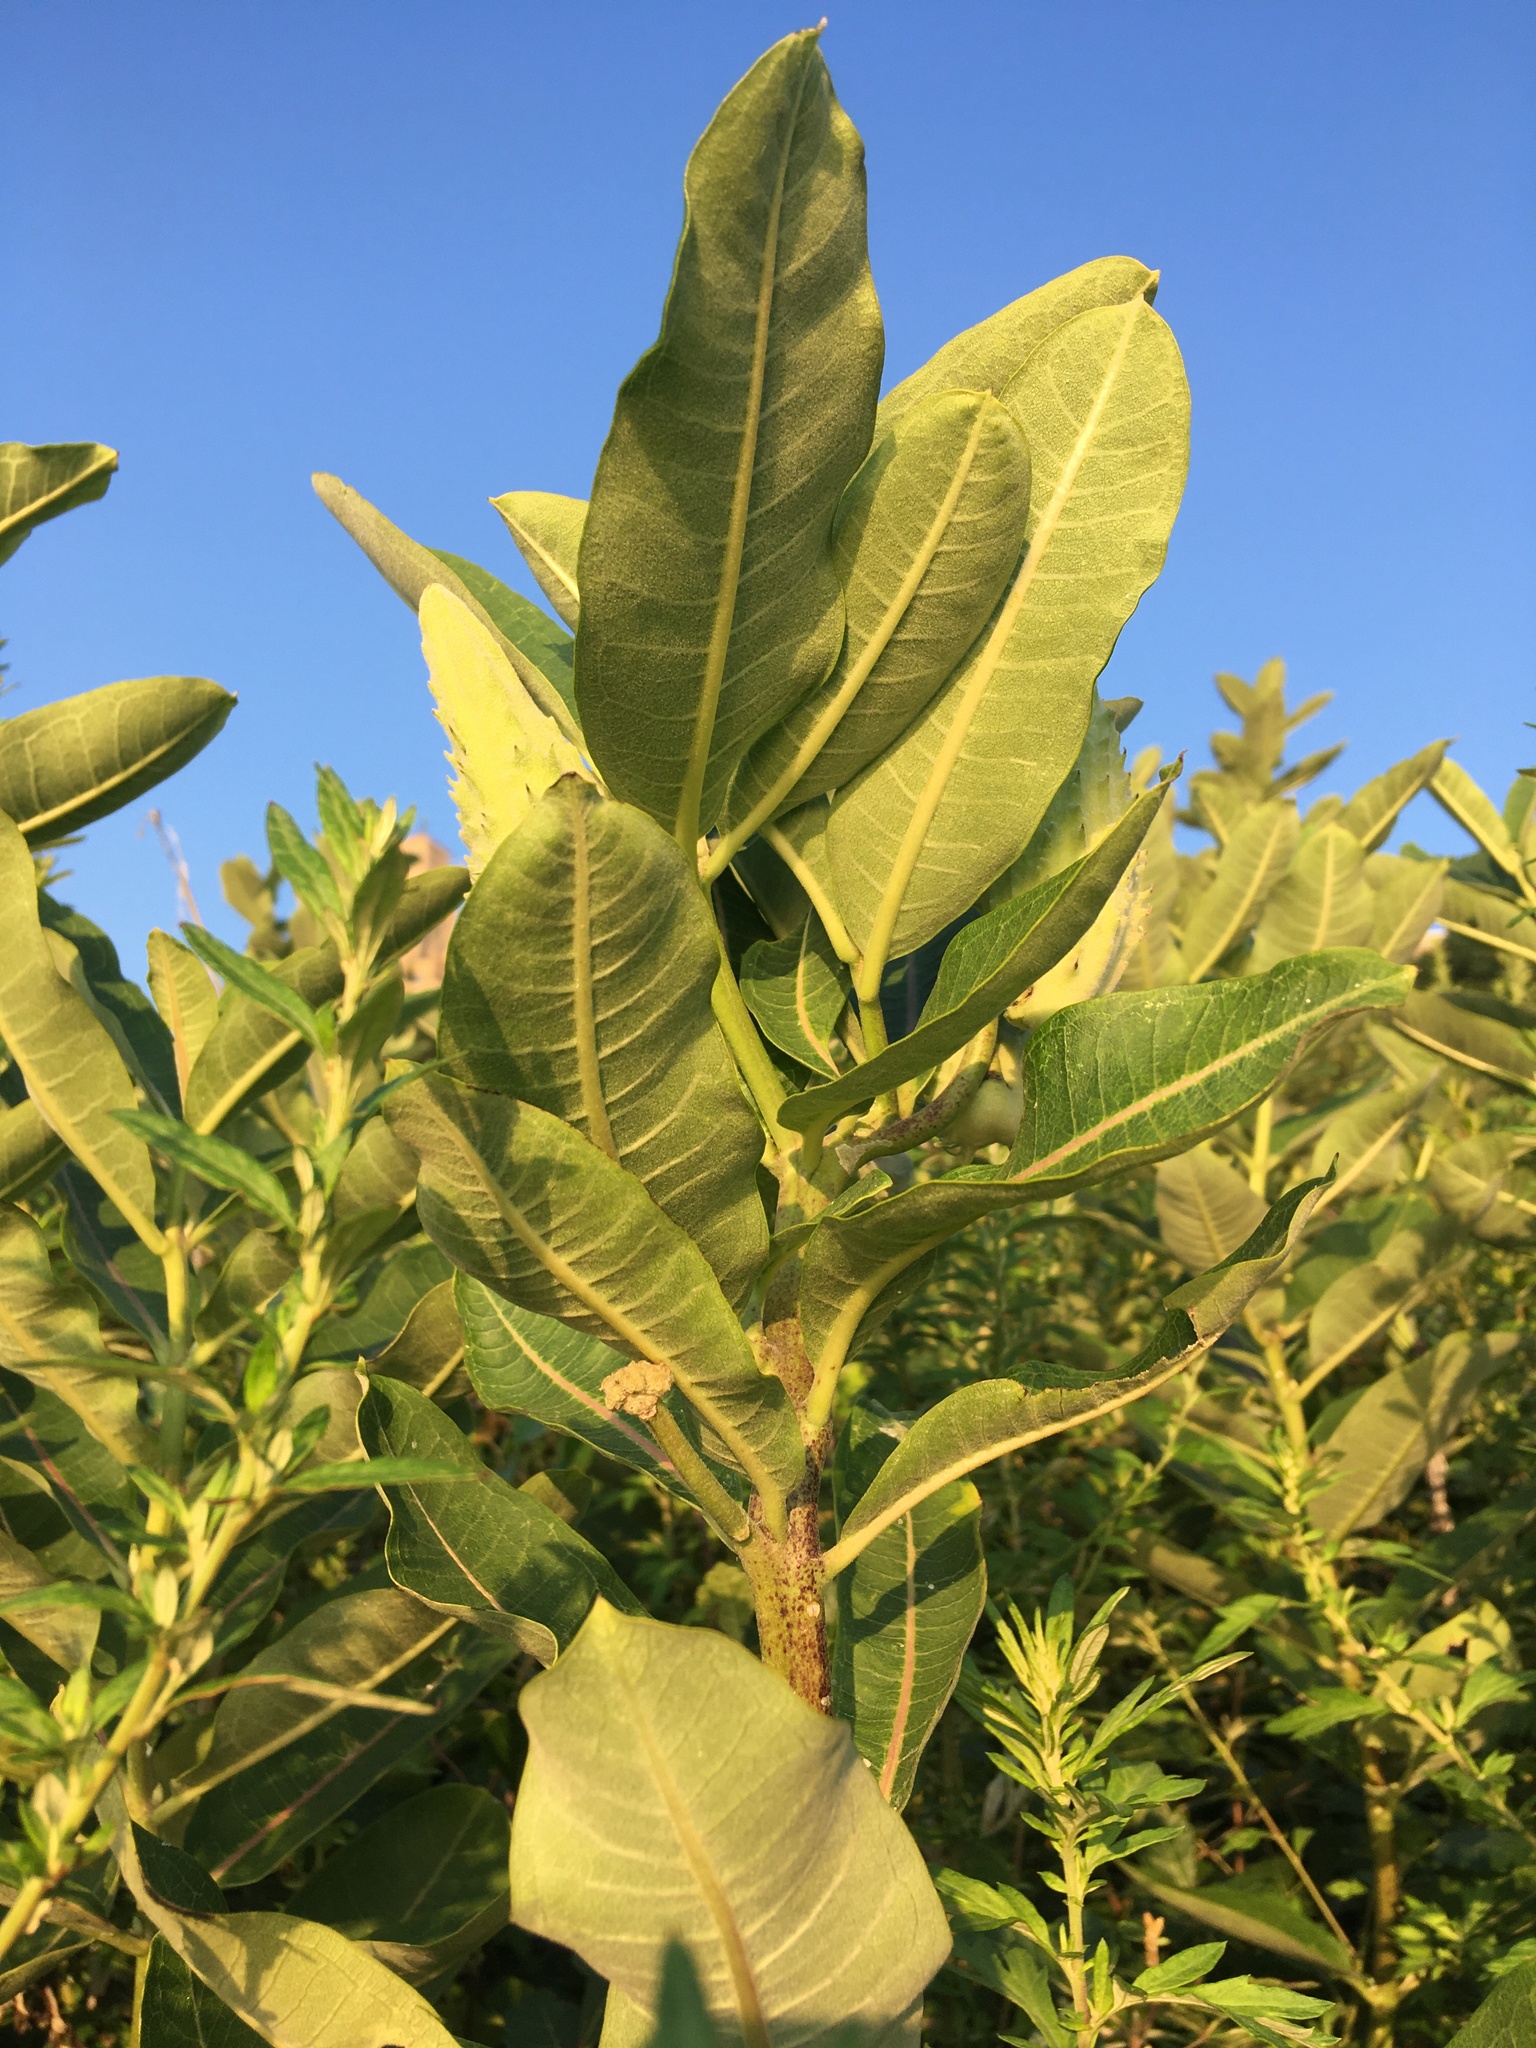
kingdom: Plantae
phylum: Tracheophyta
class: Magnoliopsida
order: Gentianales
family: Apocynaceae
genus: Asclepias
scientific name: Asclepias syriaca
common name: Common milkweed
